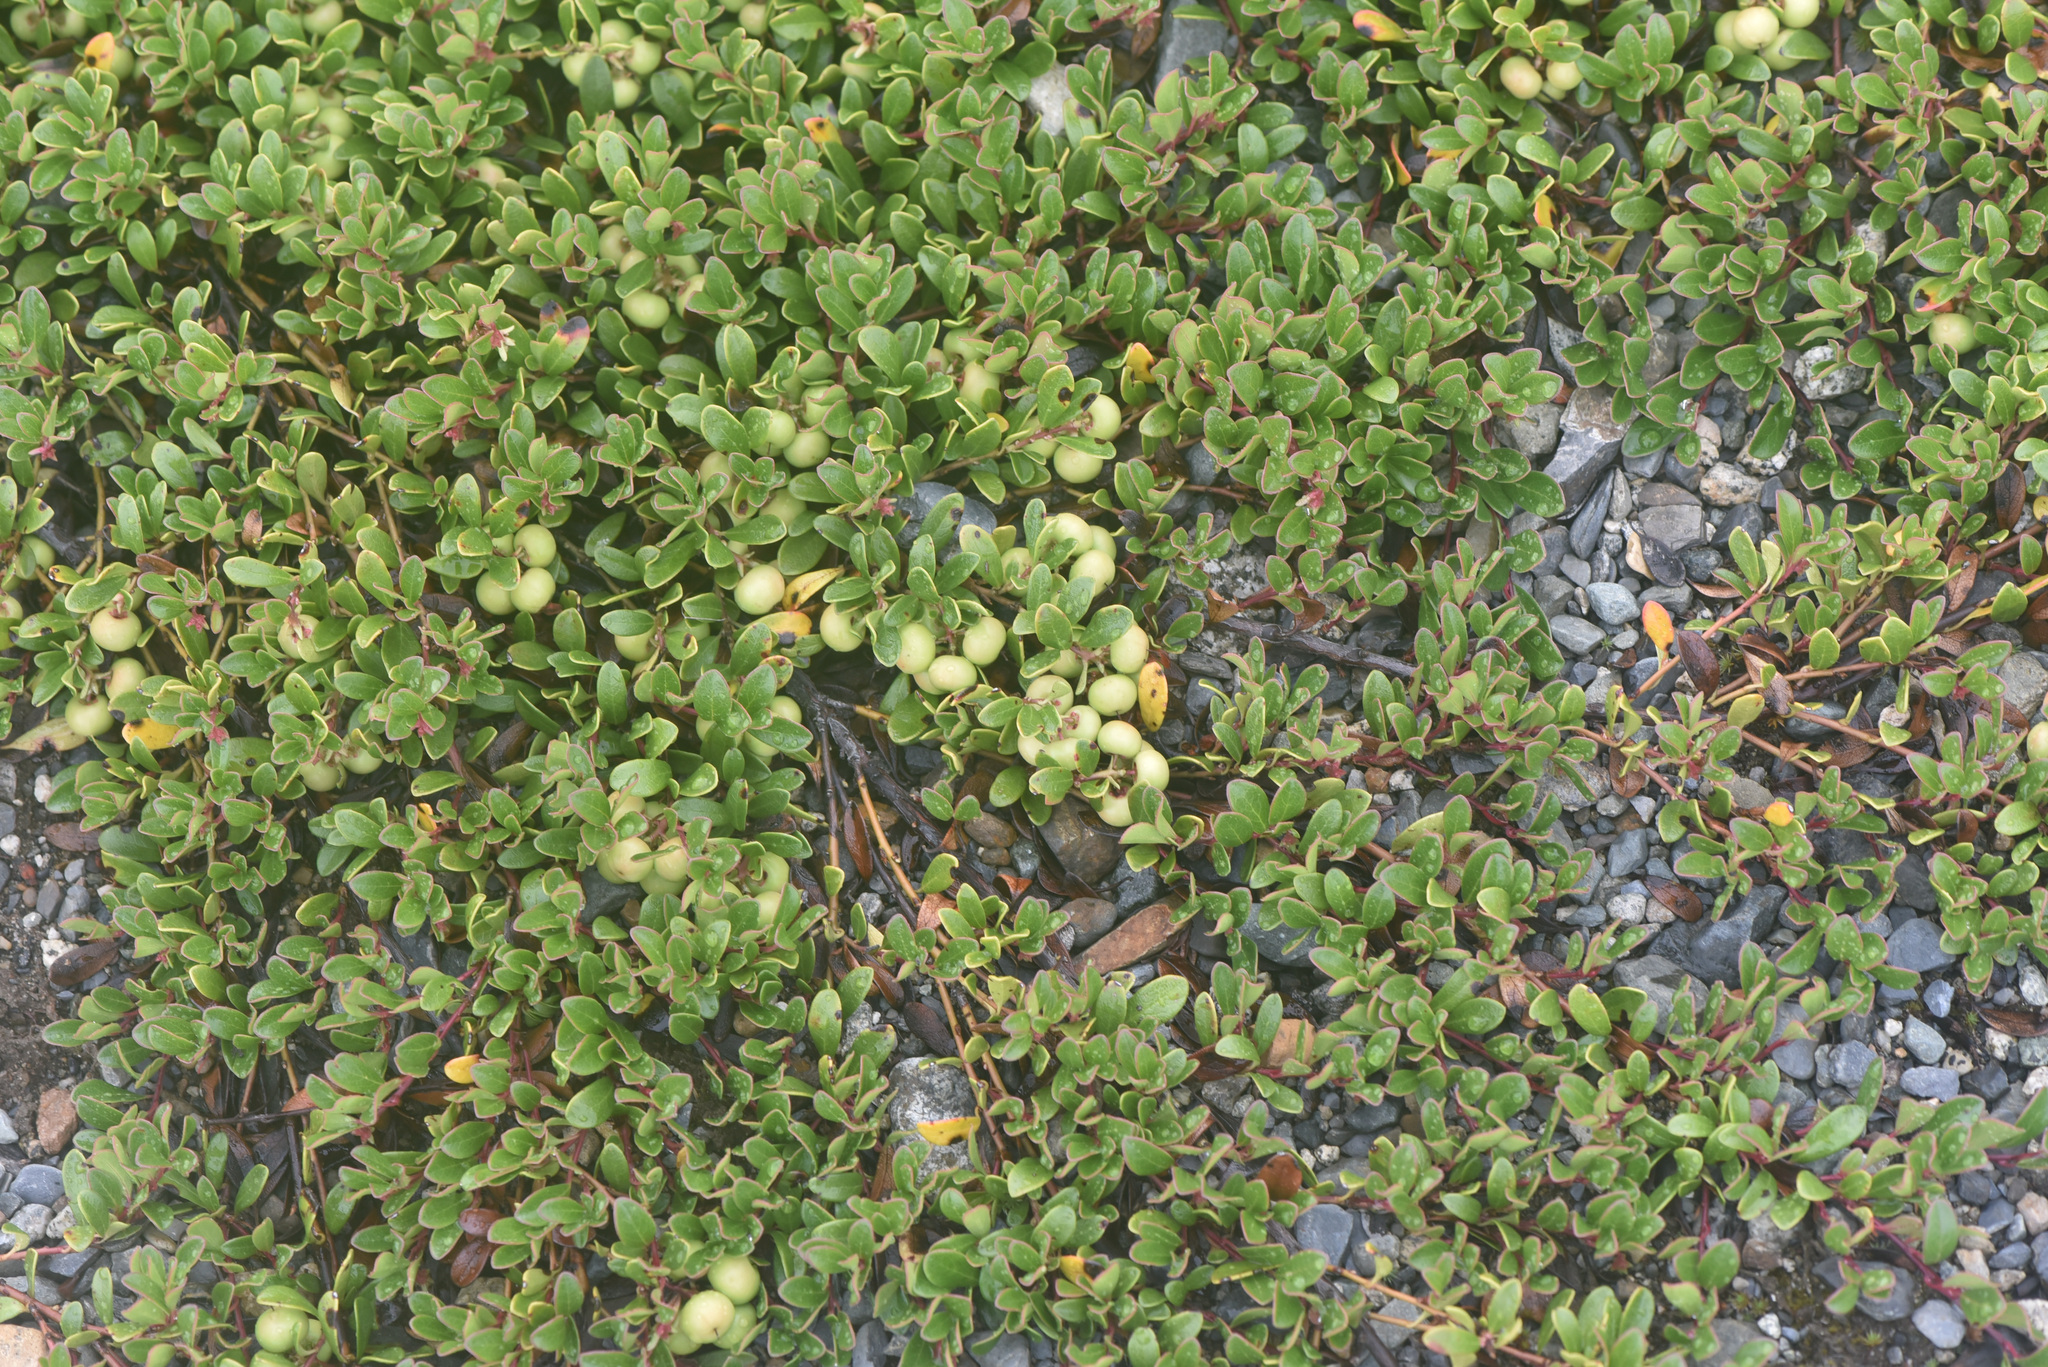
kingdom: Plantae
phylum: Tracheophyta
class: Magnoliopsida
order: Ericales
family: Ericaceae
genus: Arctostaphylos
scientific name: Arctostaphylos uva-ursi
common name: Bearberry
